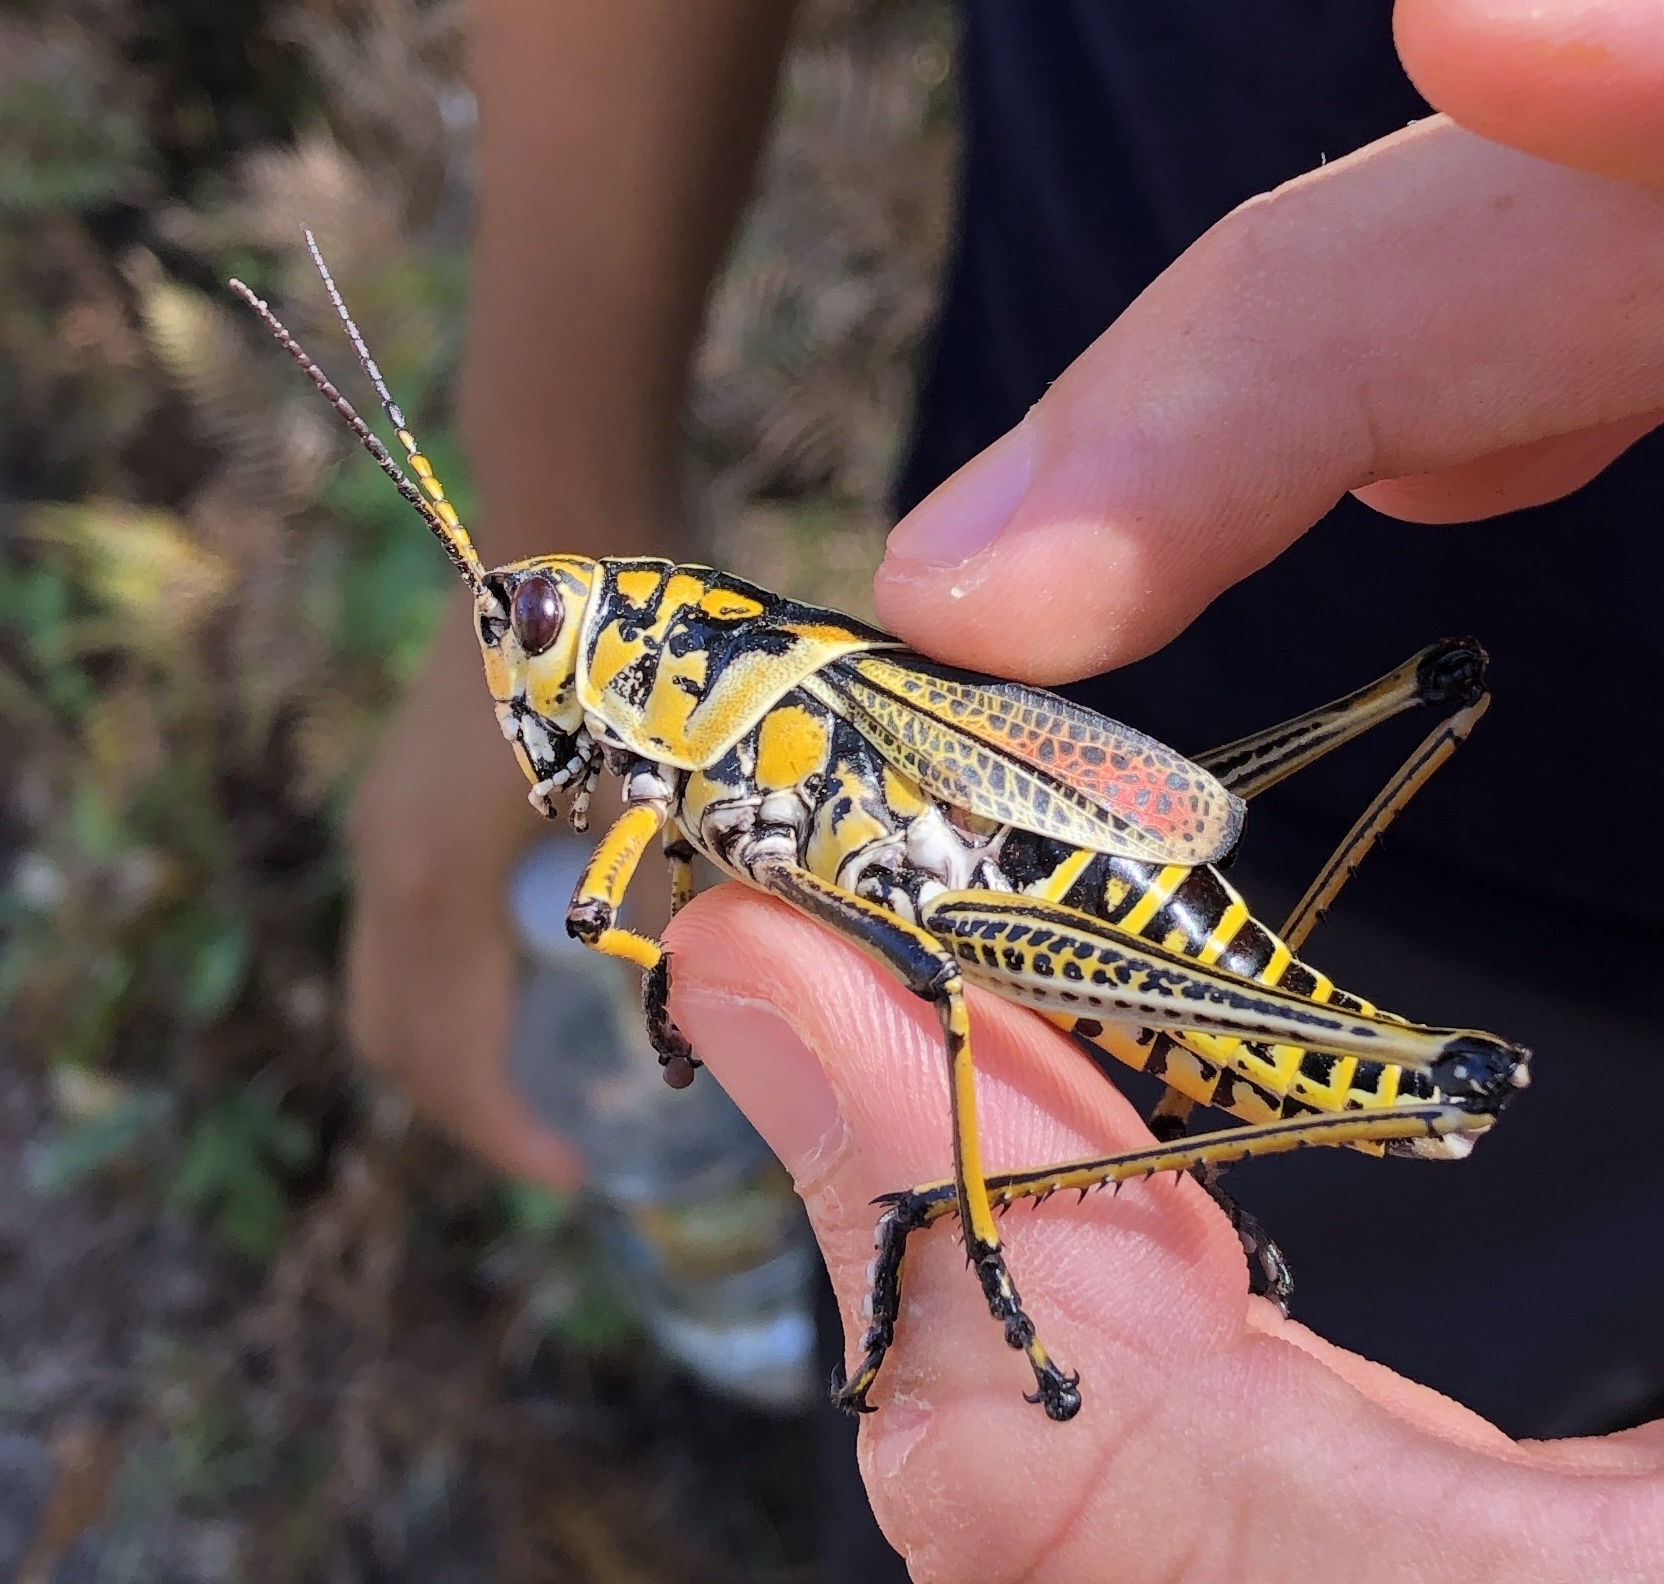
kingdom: Animalia
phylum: Arthropoda
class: Insecta
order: Orthoptera
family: Romaleidae
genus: Romalea
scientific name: Romalea microptera
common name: Eastern lubber grasshopper
